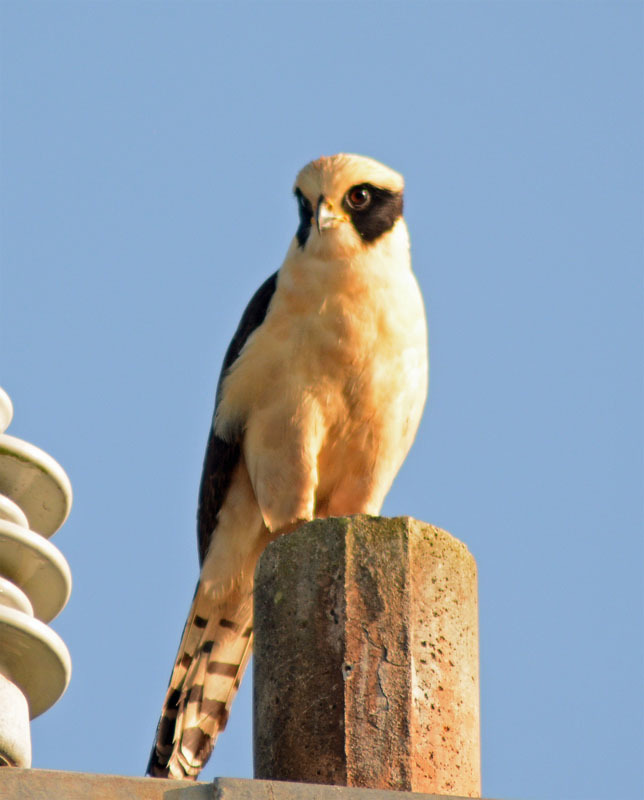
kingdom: Animalia
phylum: Chordata
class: Aves
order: Falconiformes
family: Falconidae
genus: Herpetotheres
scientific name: Herpetotheres cachinnans
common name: Laughing falcon
